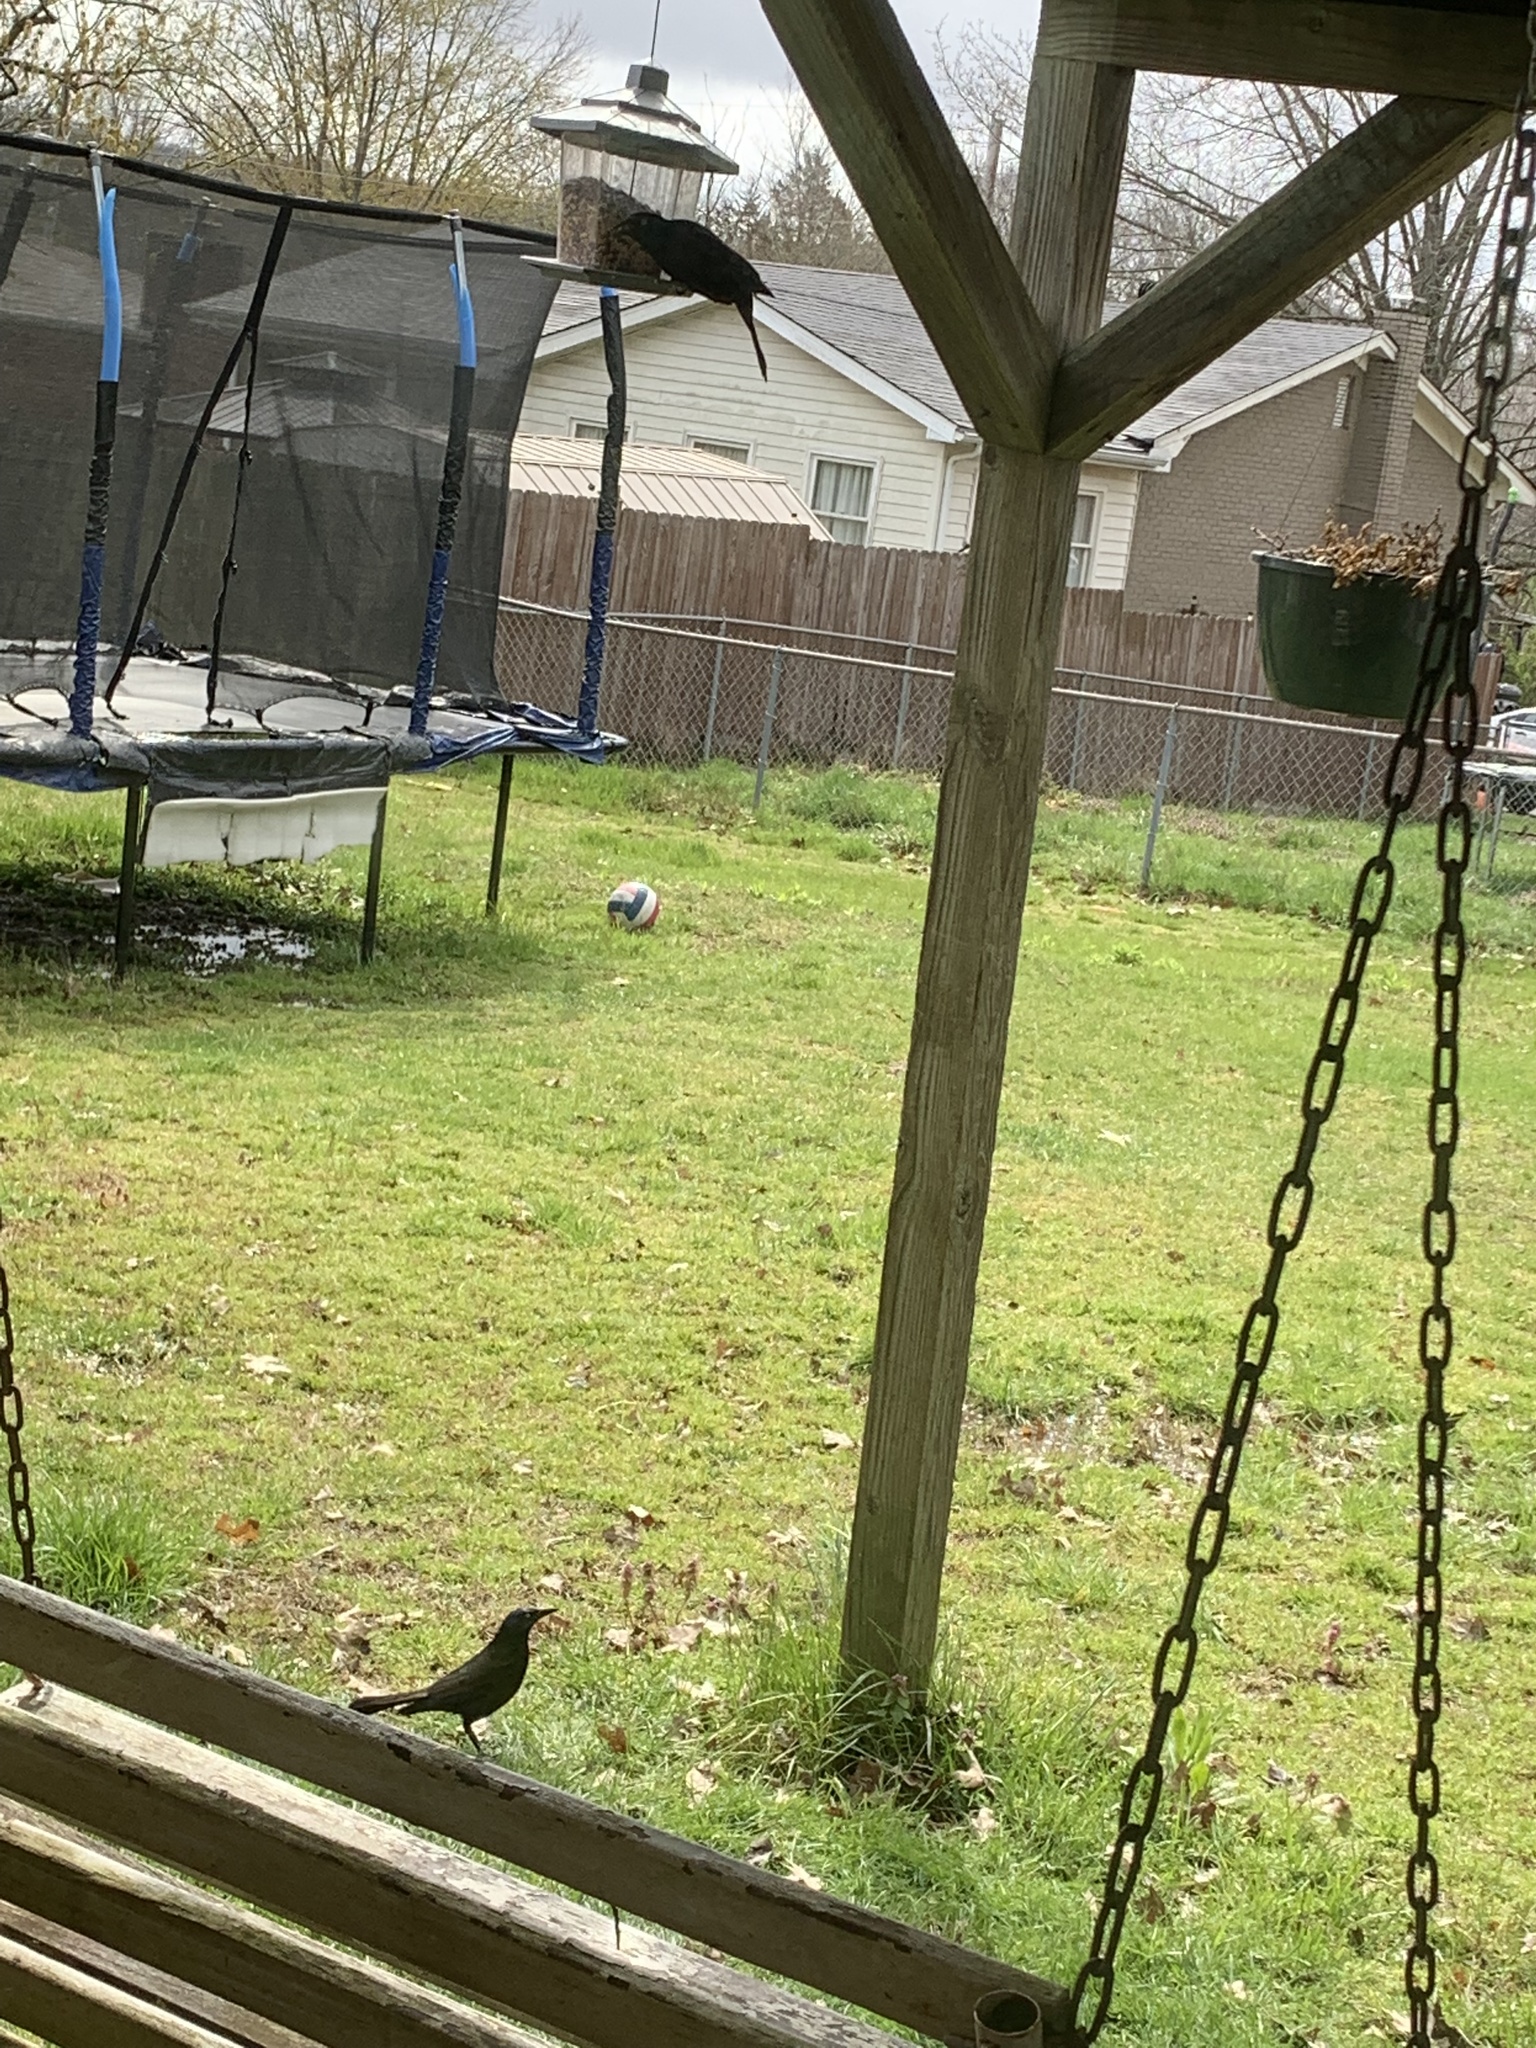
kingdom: Animalia
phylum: Chordata
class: Aves
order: Passeriformes
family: Icteridae
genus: Quiscalus
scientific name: Quiscalus quiscula
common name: Common grackle
